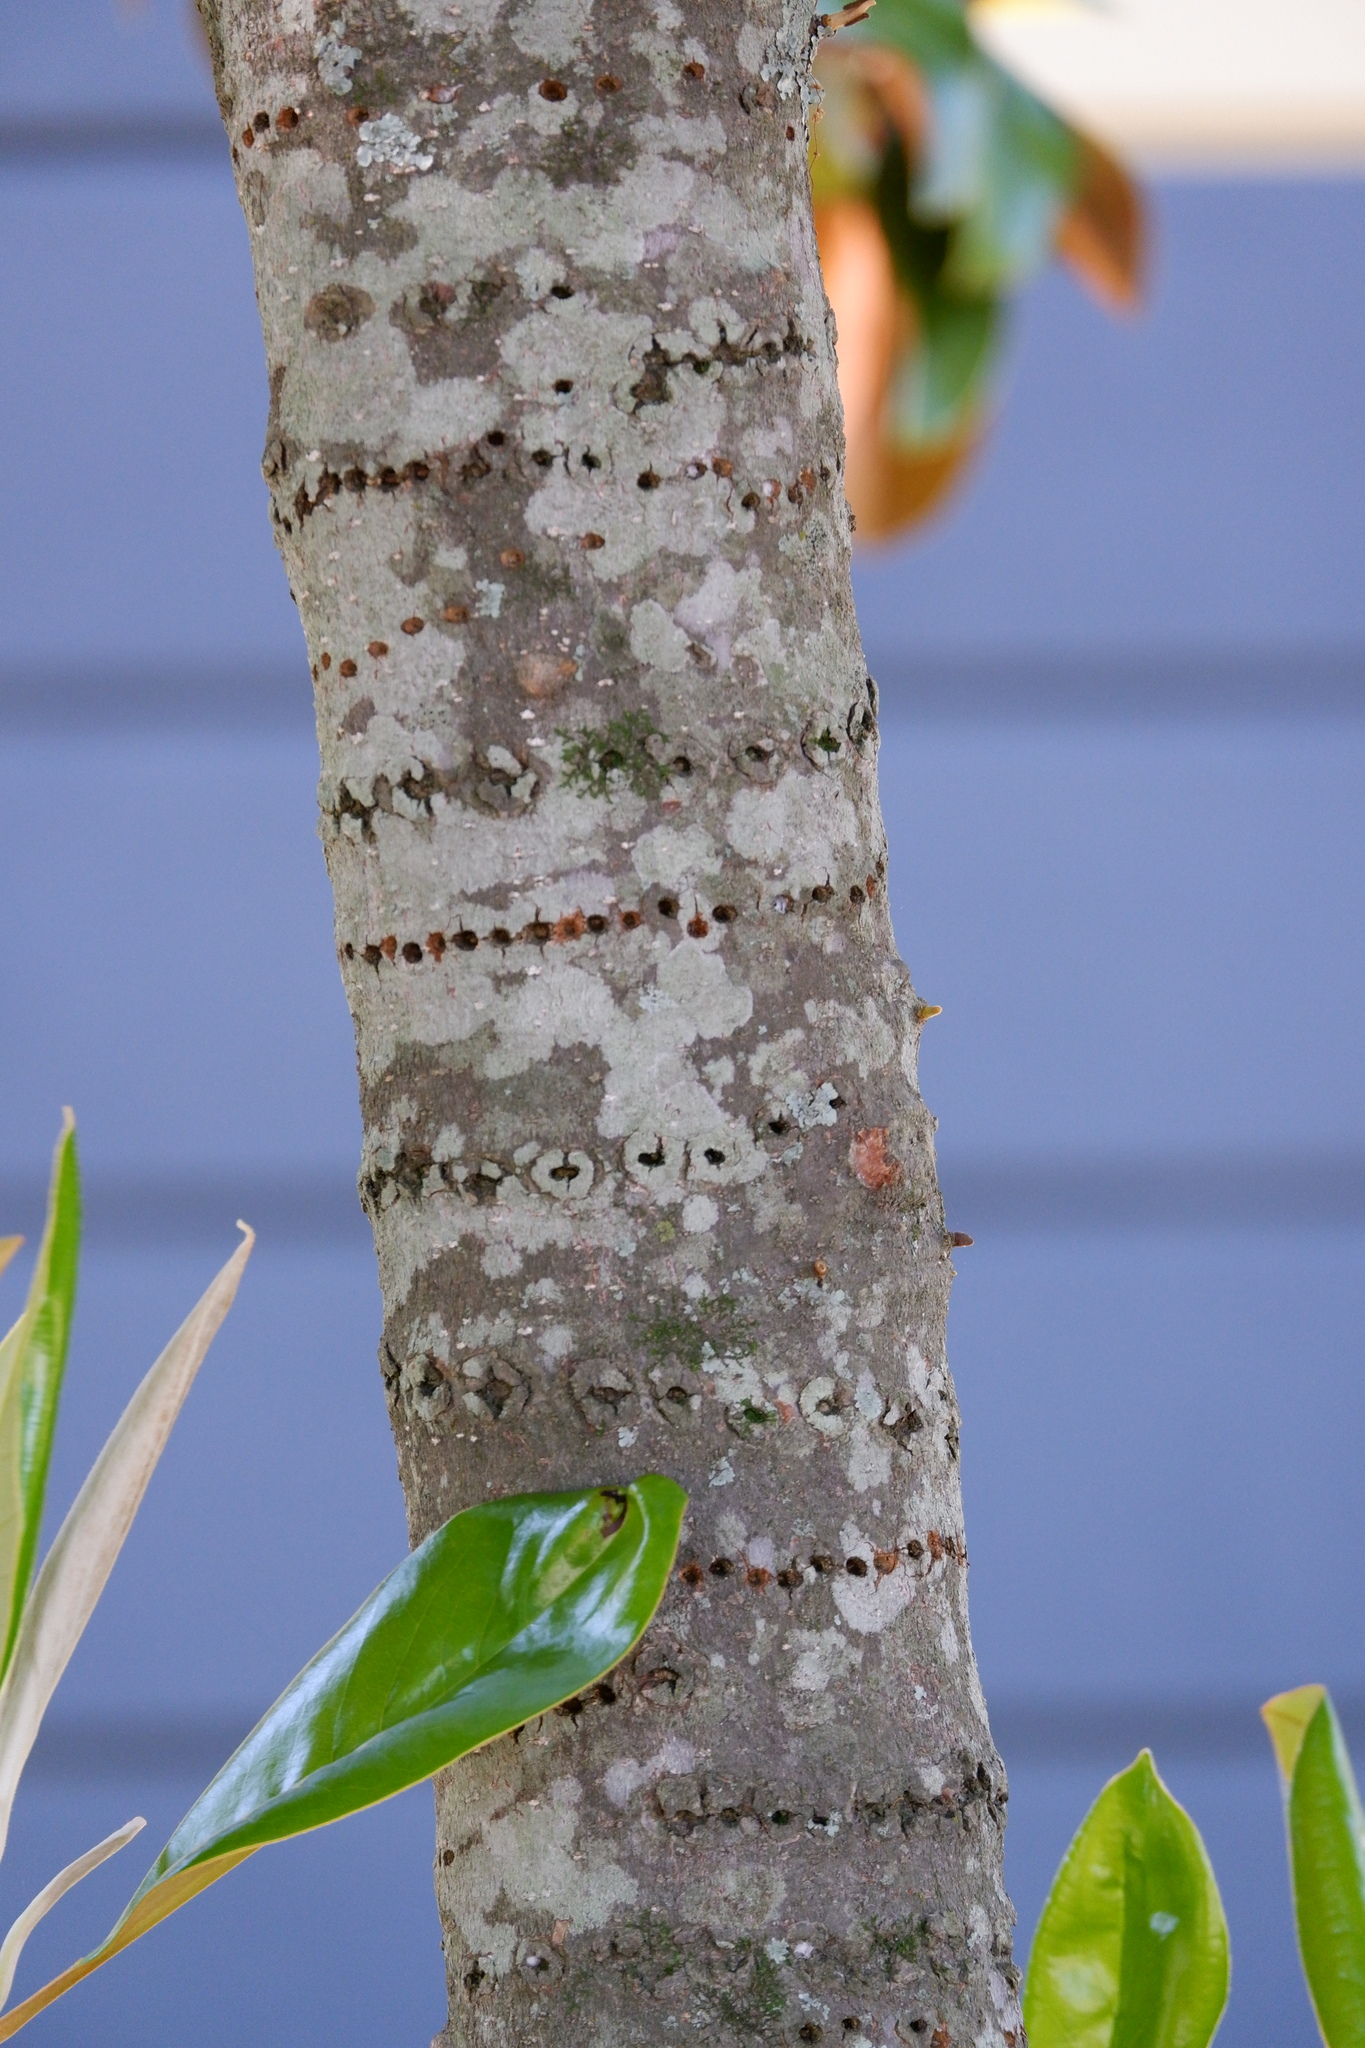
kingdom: Animalia
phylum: Chordata
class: Aves
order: Piciformes
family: Picidae
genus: Sphyrapicus
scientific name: Sphyrapicus varius
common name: Yellow-bellied sapsucker
